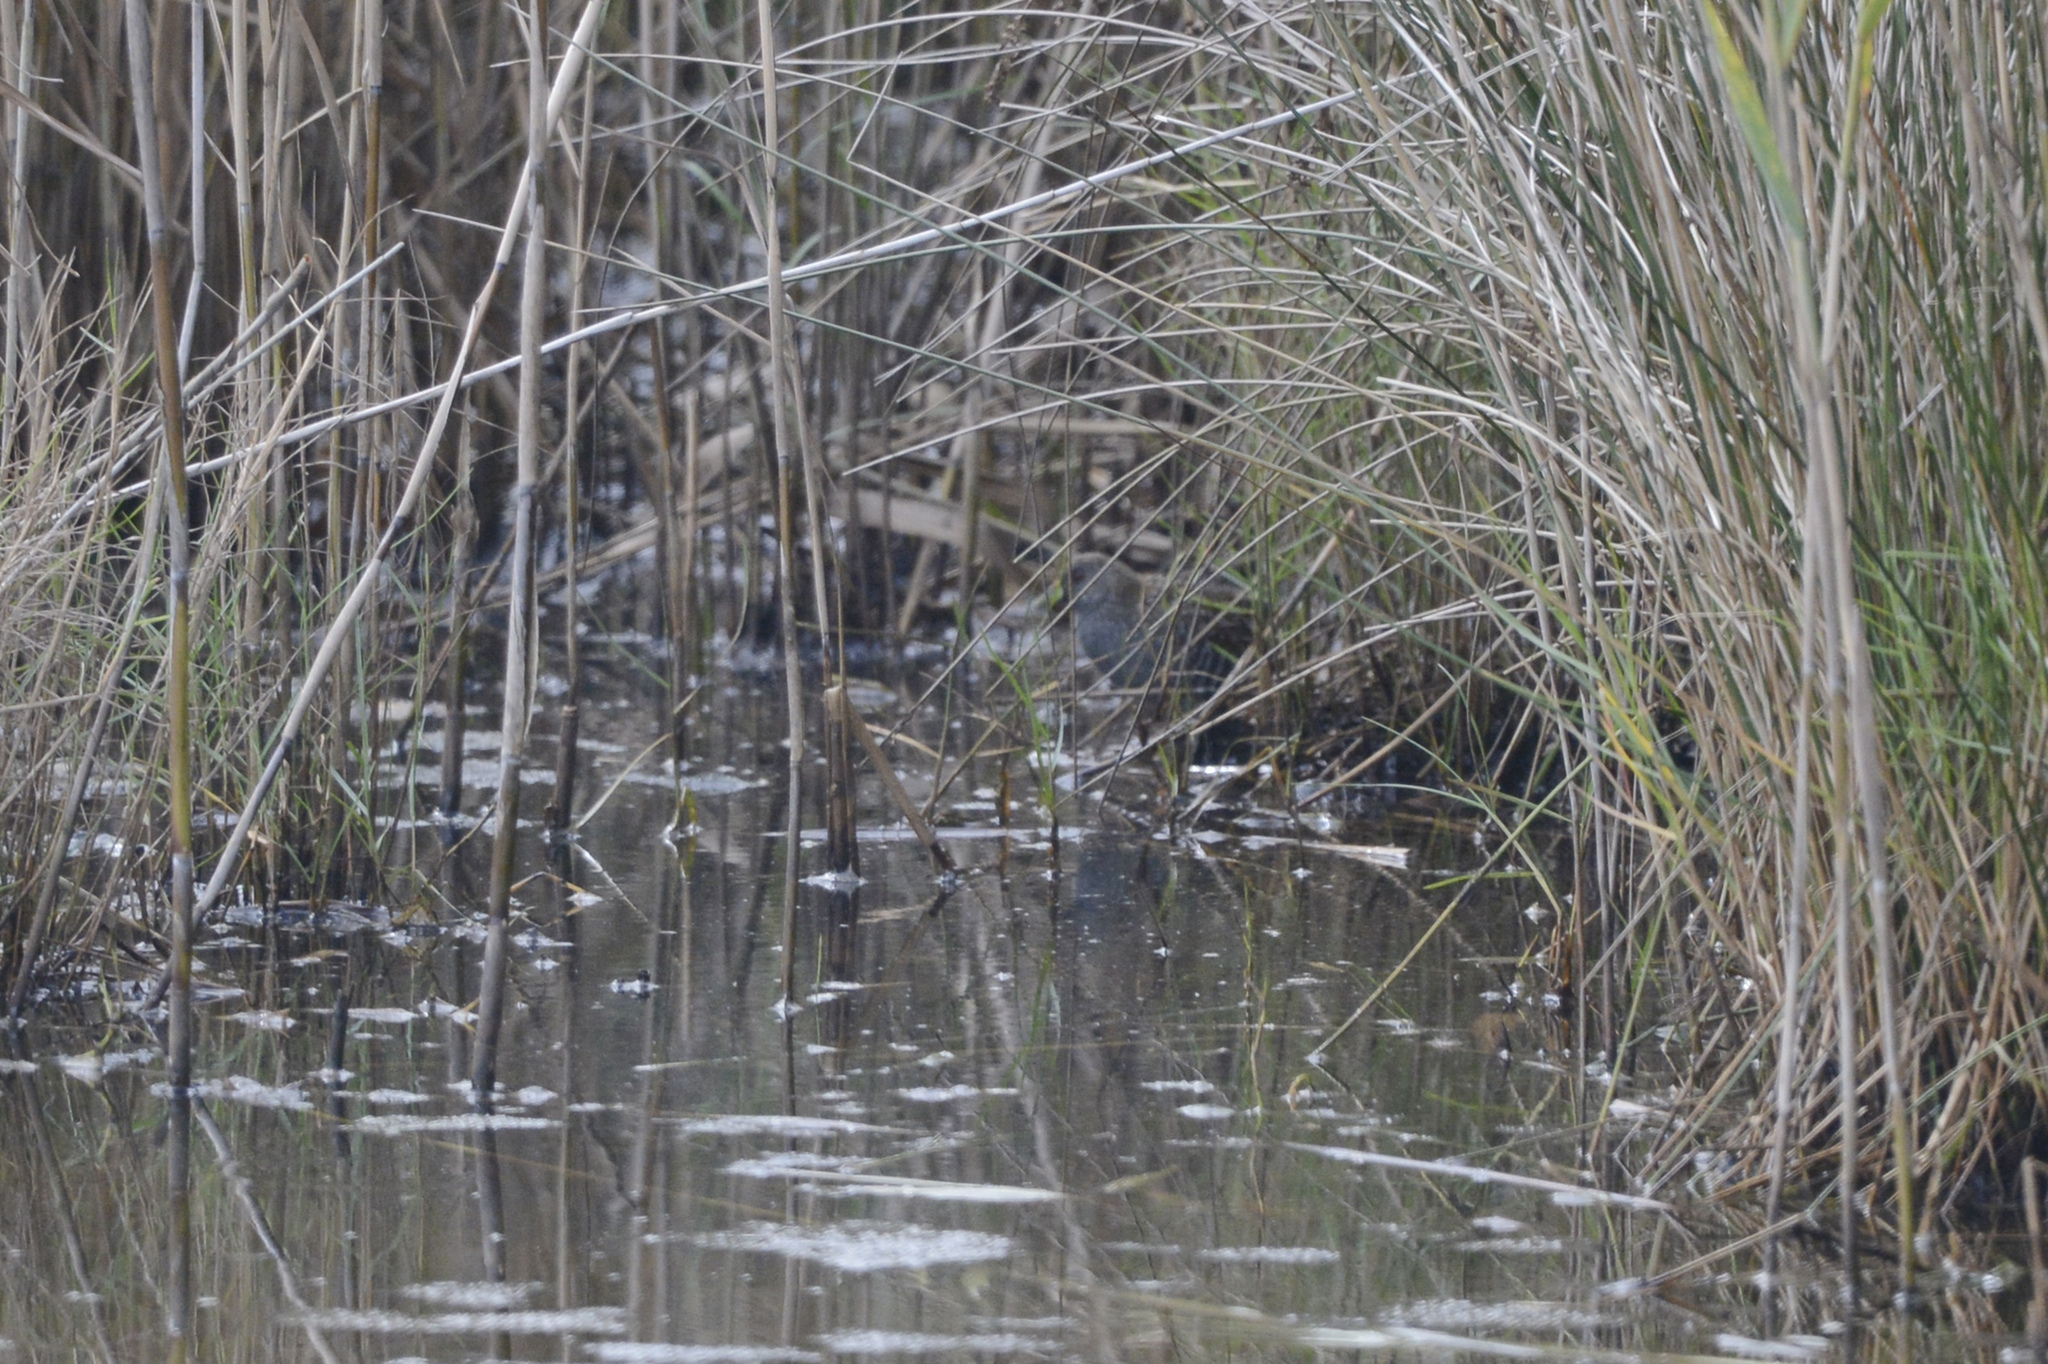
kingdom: Animalia
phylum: Chordata
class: Aves
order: Gruiformes
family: Rallidae
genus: Porzana
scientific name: Porzana fluminea
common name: Australian crake
